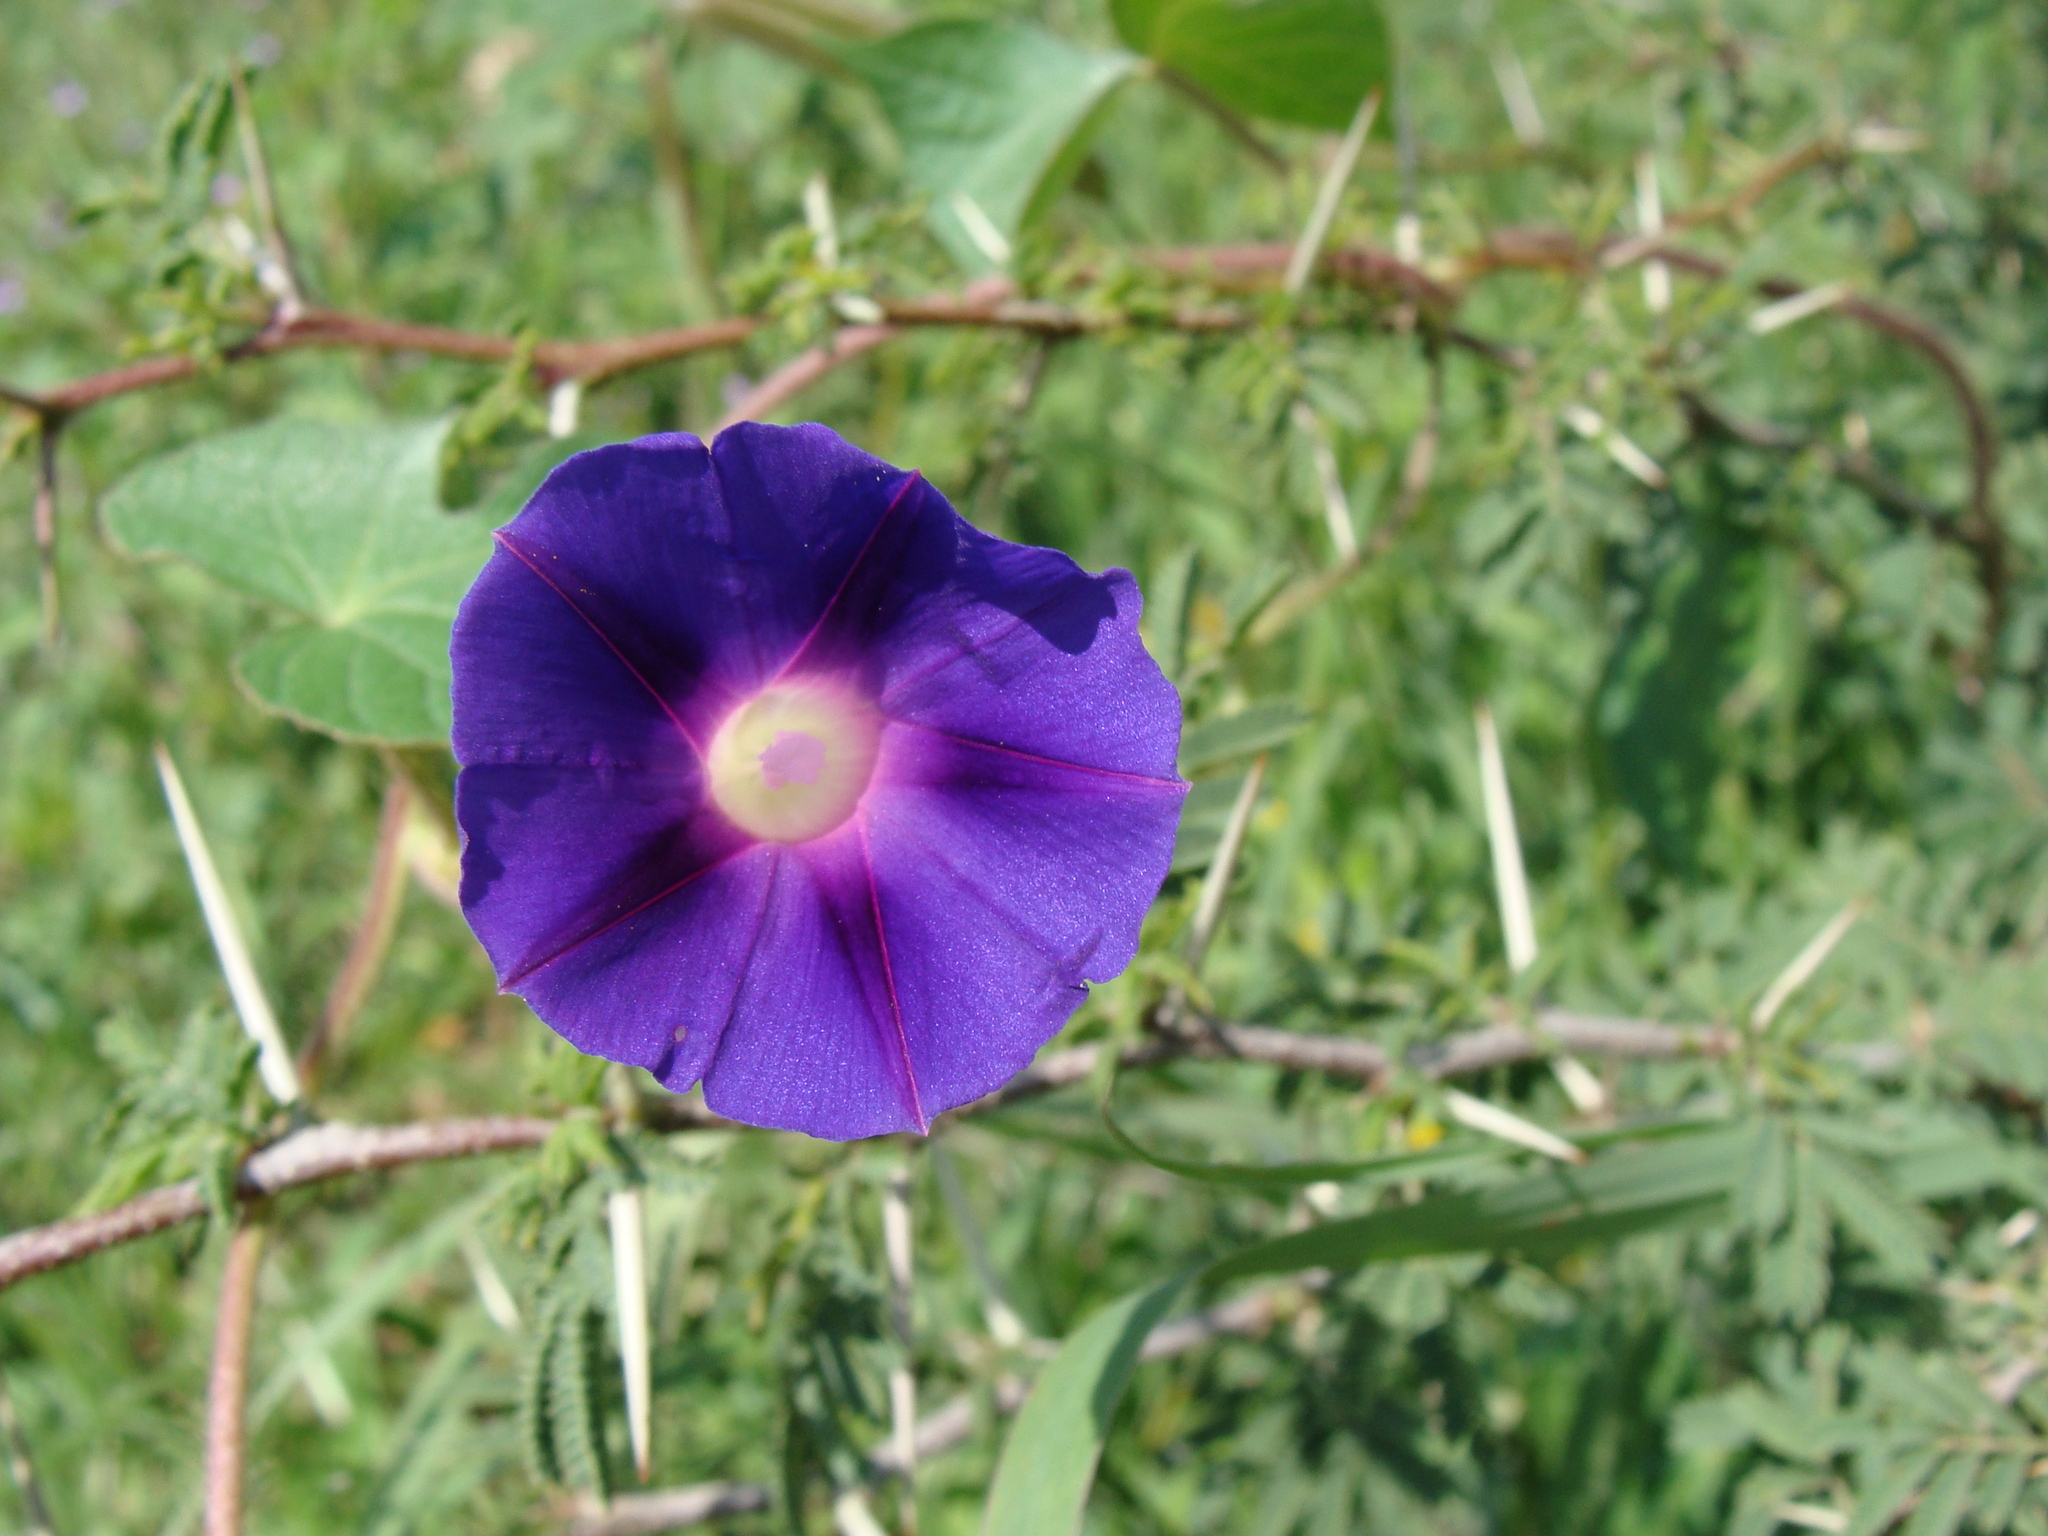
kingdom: Plantae
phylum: Tracheophyta
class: Magnoliopsida
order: Solanales
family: Convolvulaceae
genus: Ipomoea
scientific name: Ipomoea purpurea
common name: Common morning-glory
